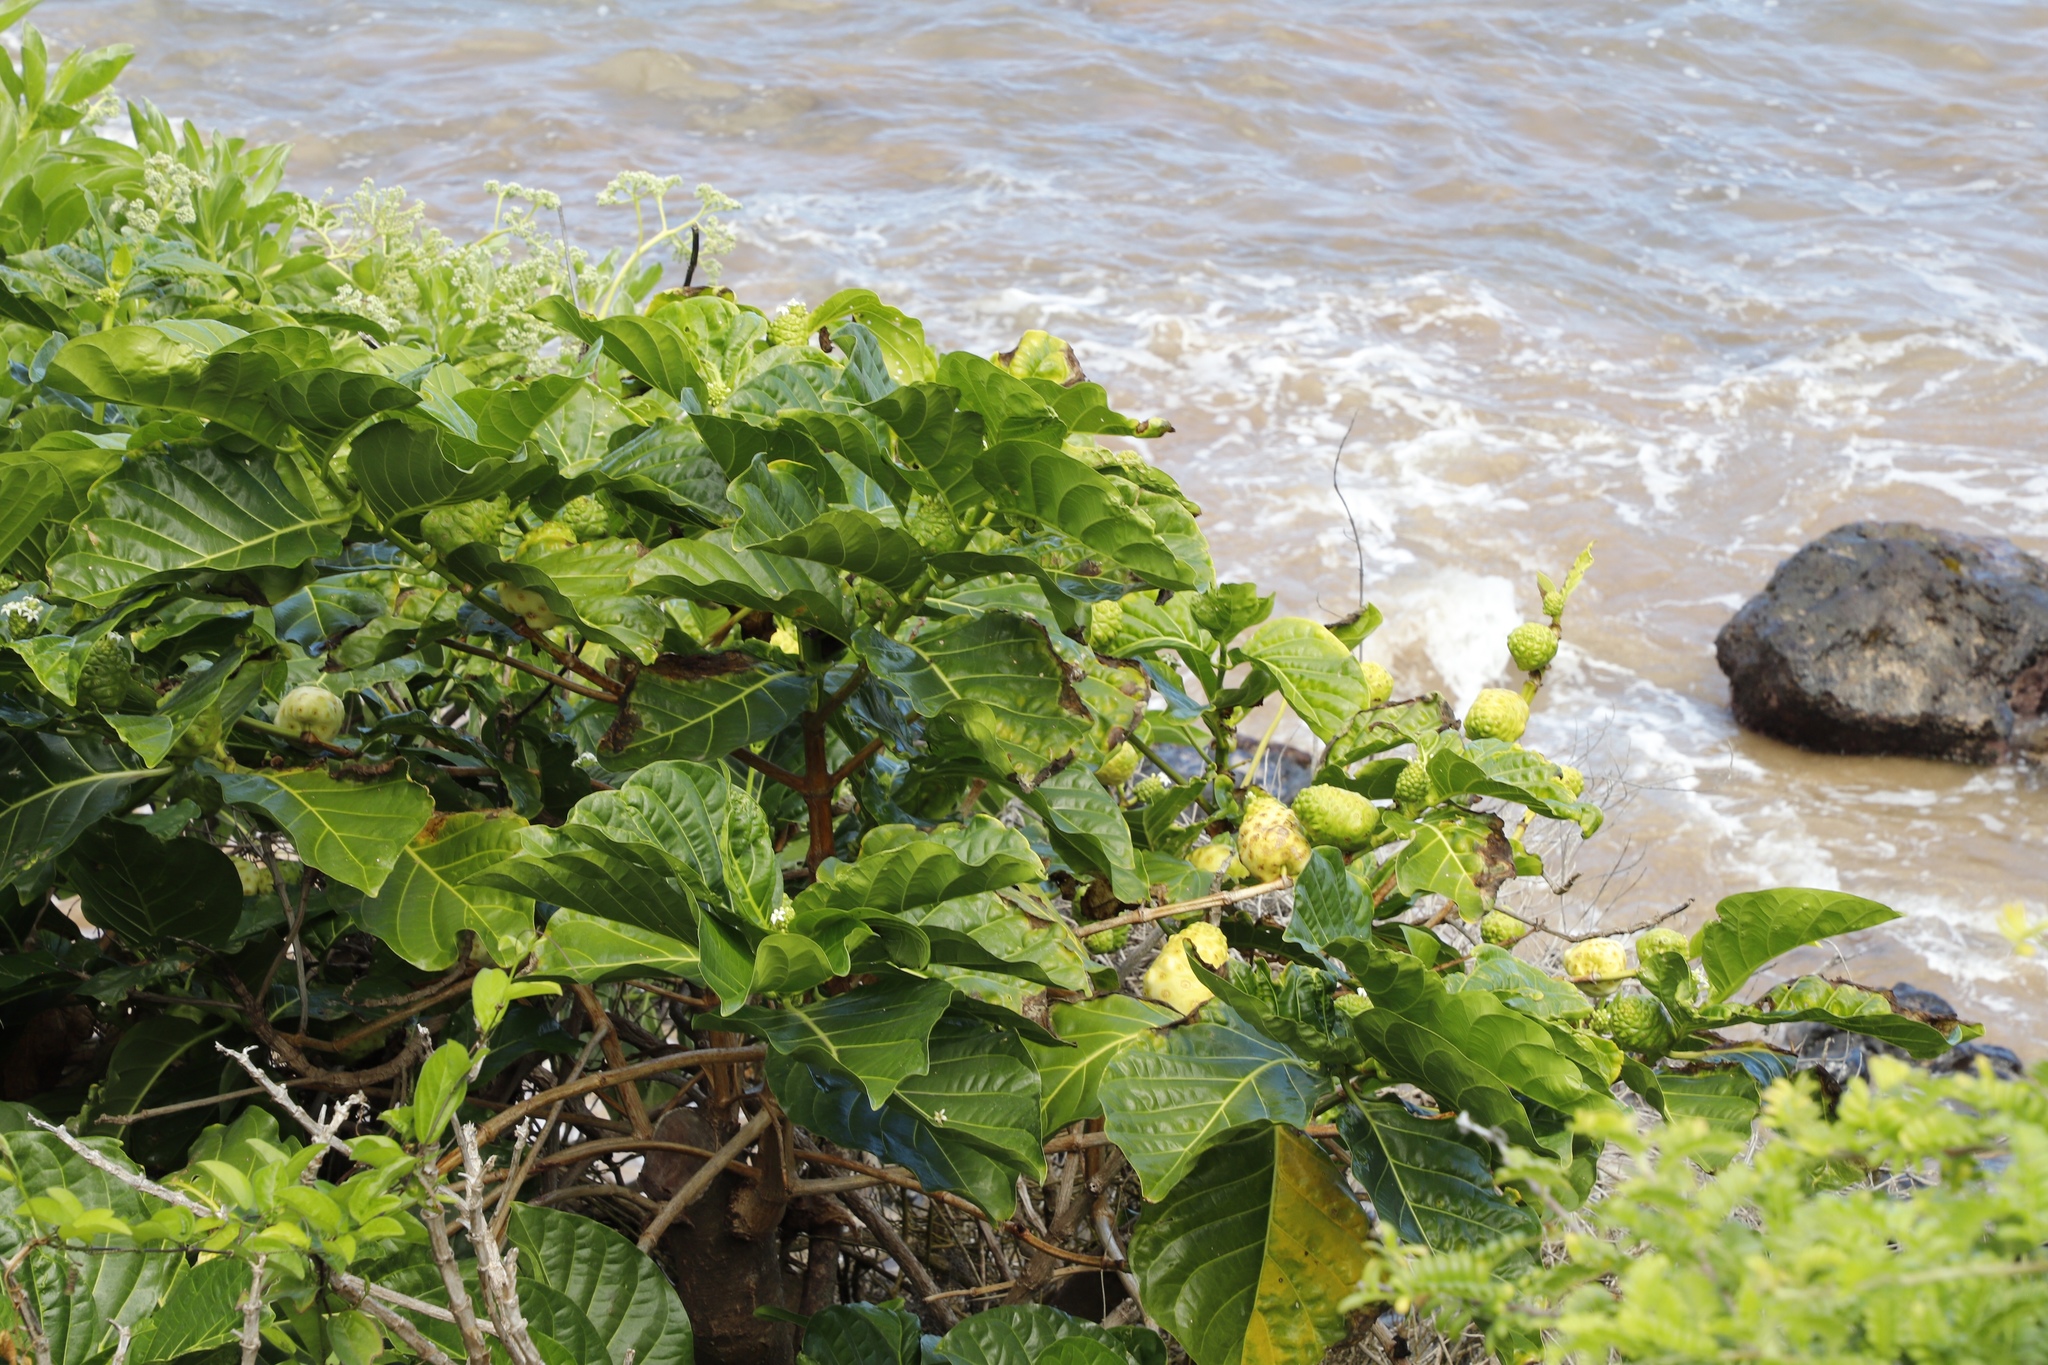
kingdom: Plantae
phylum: Tracheophyta
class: Magnoliopsida
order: Gentianales
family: Rubiaceae
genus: Morinda
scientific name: Morinda citrifolia
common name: Indian-mulberry
